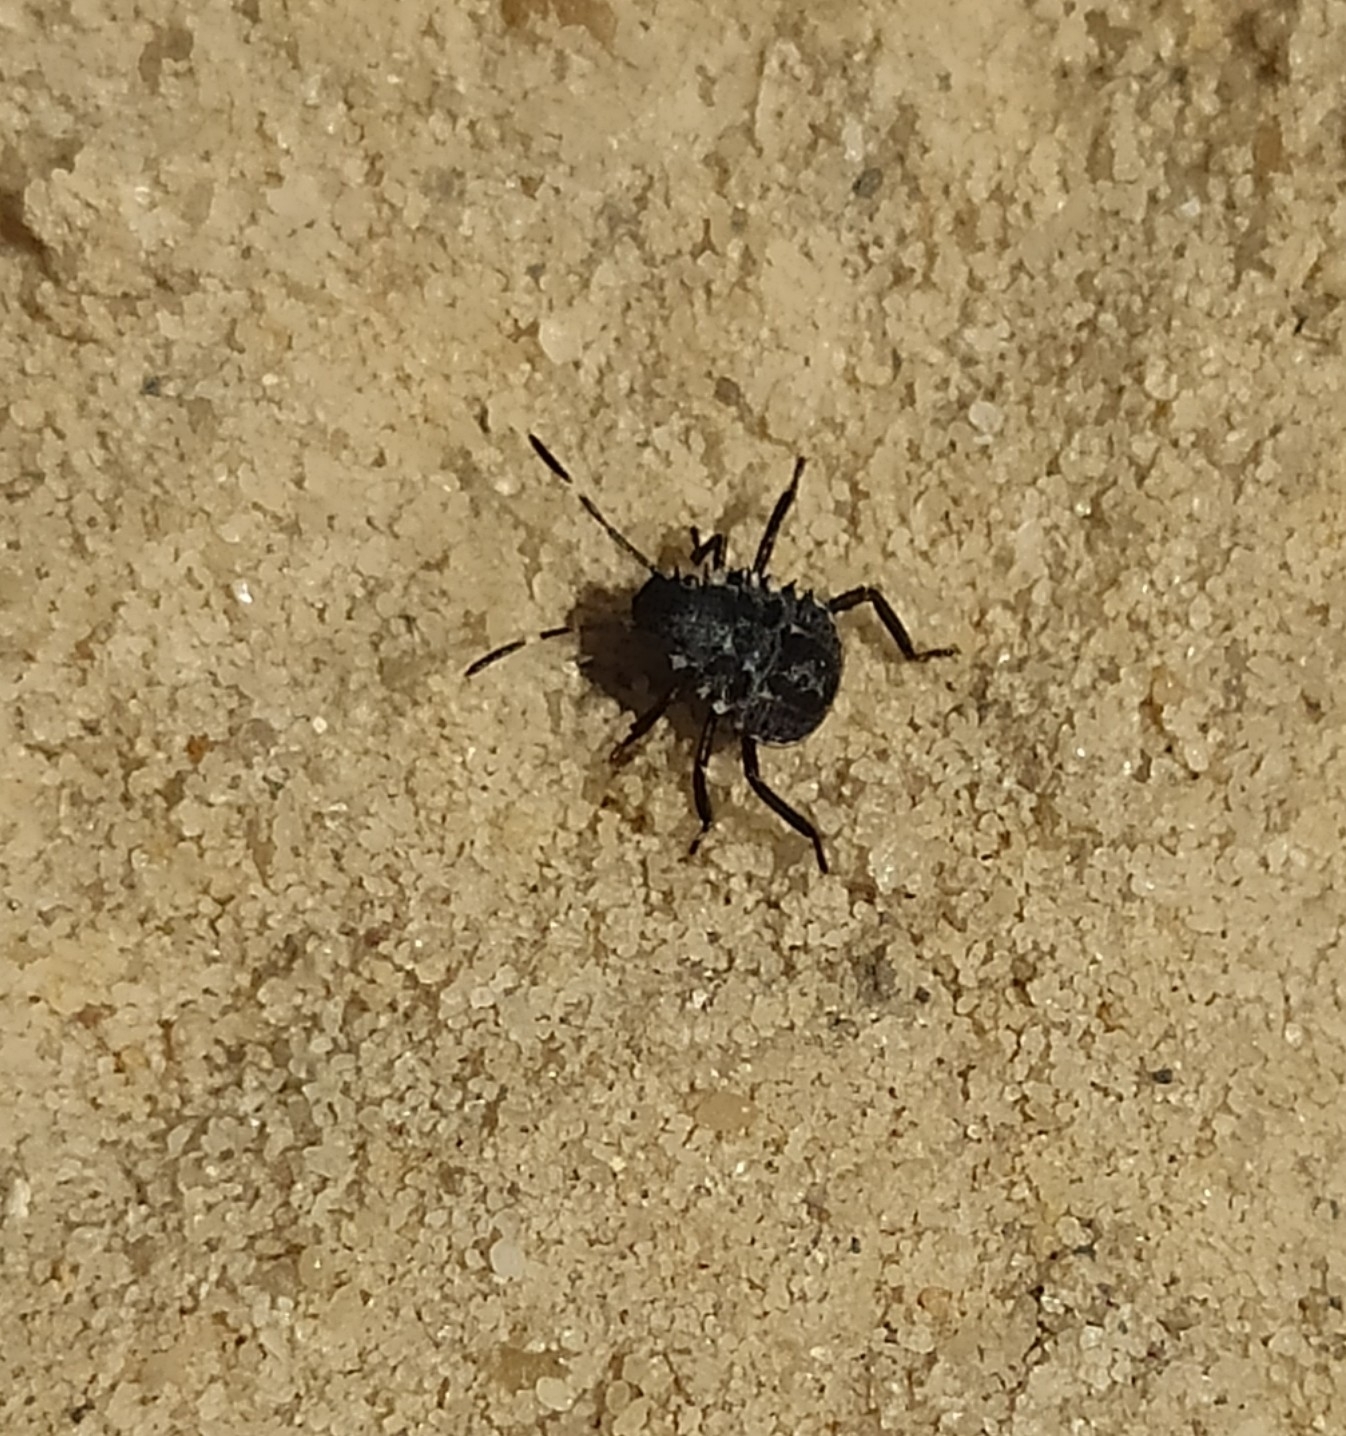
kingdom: Animalia
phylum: Arthropoda
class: Insecta
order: Hemiptera
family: Pentatomidae
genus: Halyomorpha
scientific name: Halyomorpha halys
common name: Brown marmorated stink bug
